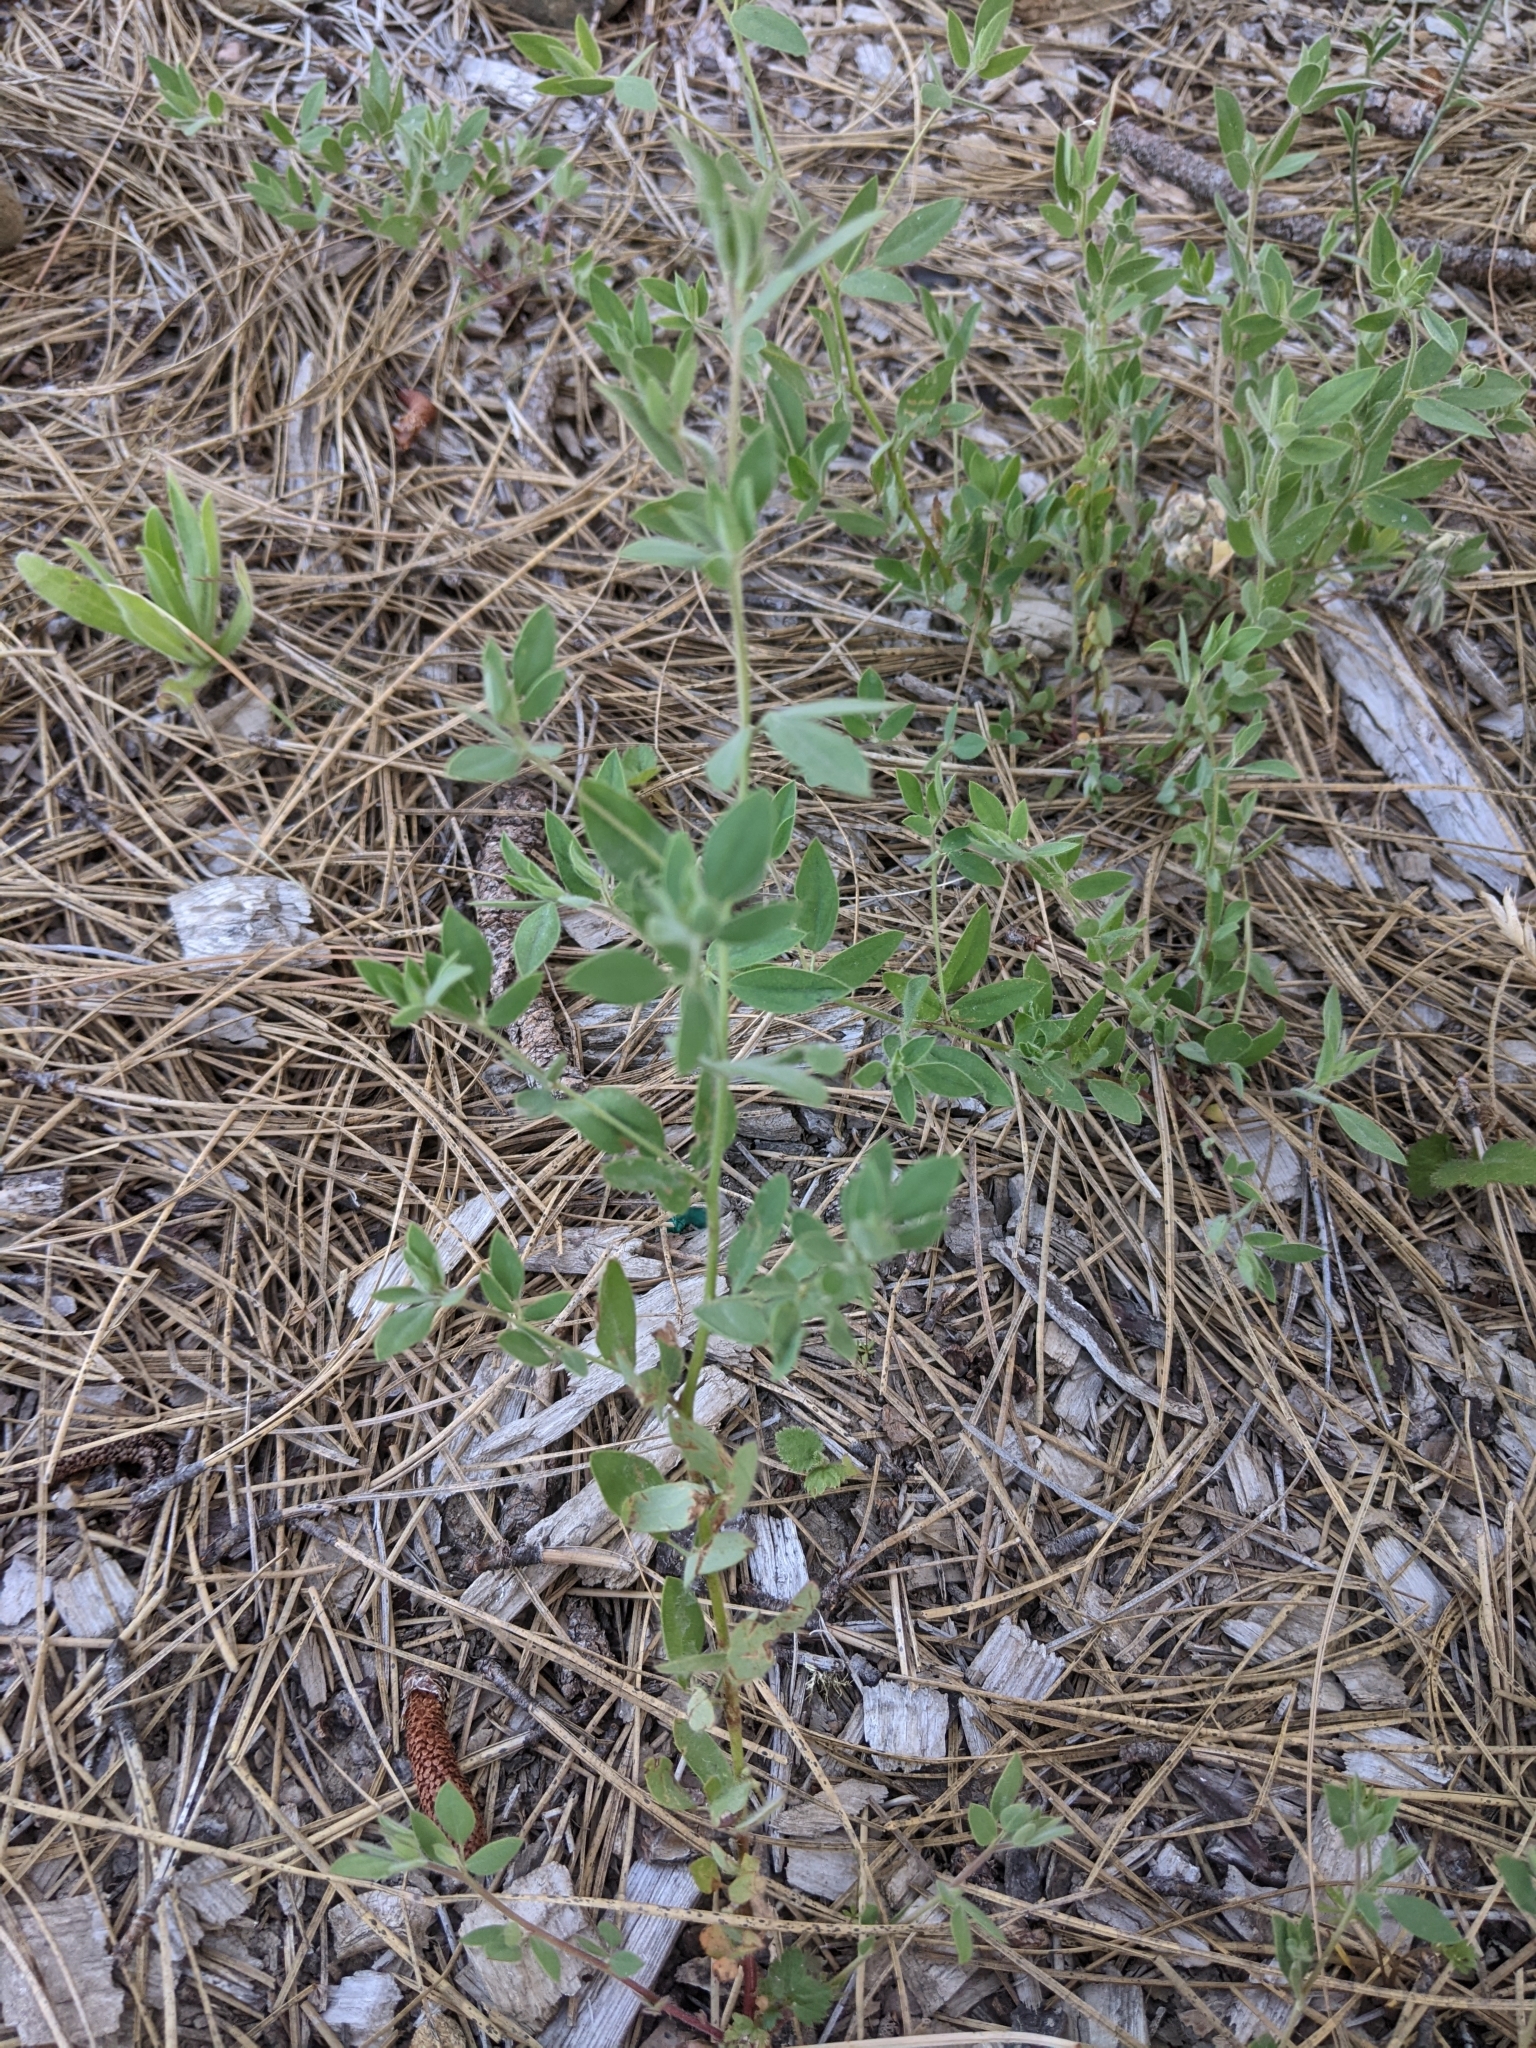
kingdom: Plantae
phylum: Tracheophyta
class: Magnoliopsida
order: Fabales
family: Fabaceae
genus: Acmispon
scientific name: Acmispon americanus
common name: American bird's-foot trefoil
